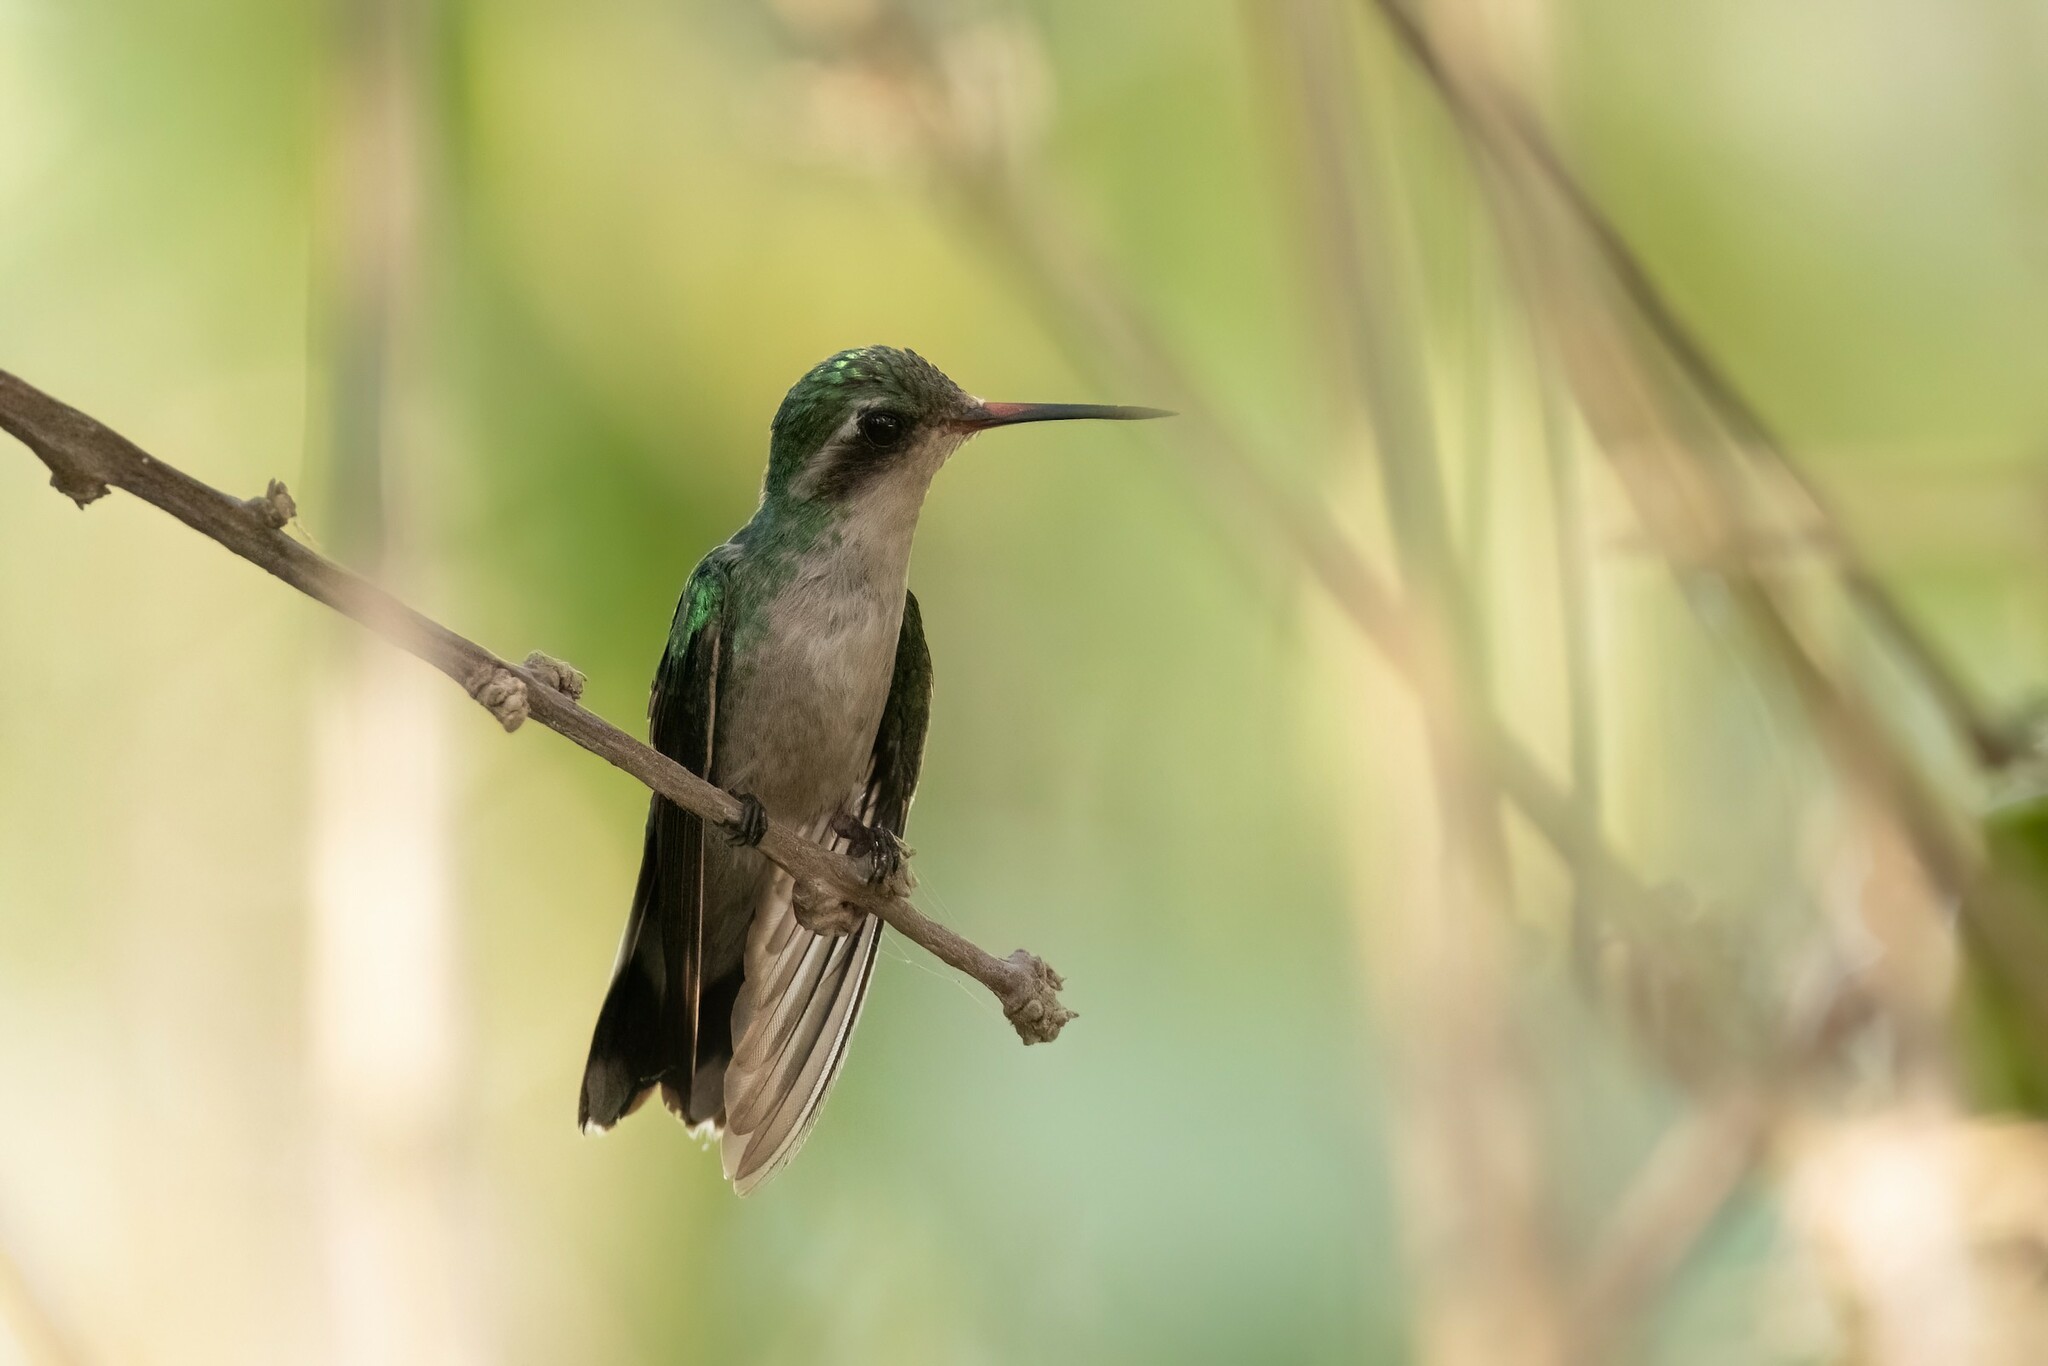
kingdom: Animalia
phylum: Chordata
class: Aves
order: Apodiformes
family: Trochilidae
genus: Cynanthus
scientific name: Cynanthus canivetii
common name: Canivet's emerald
